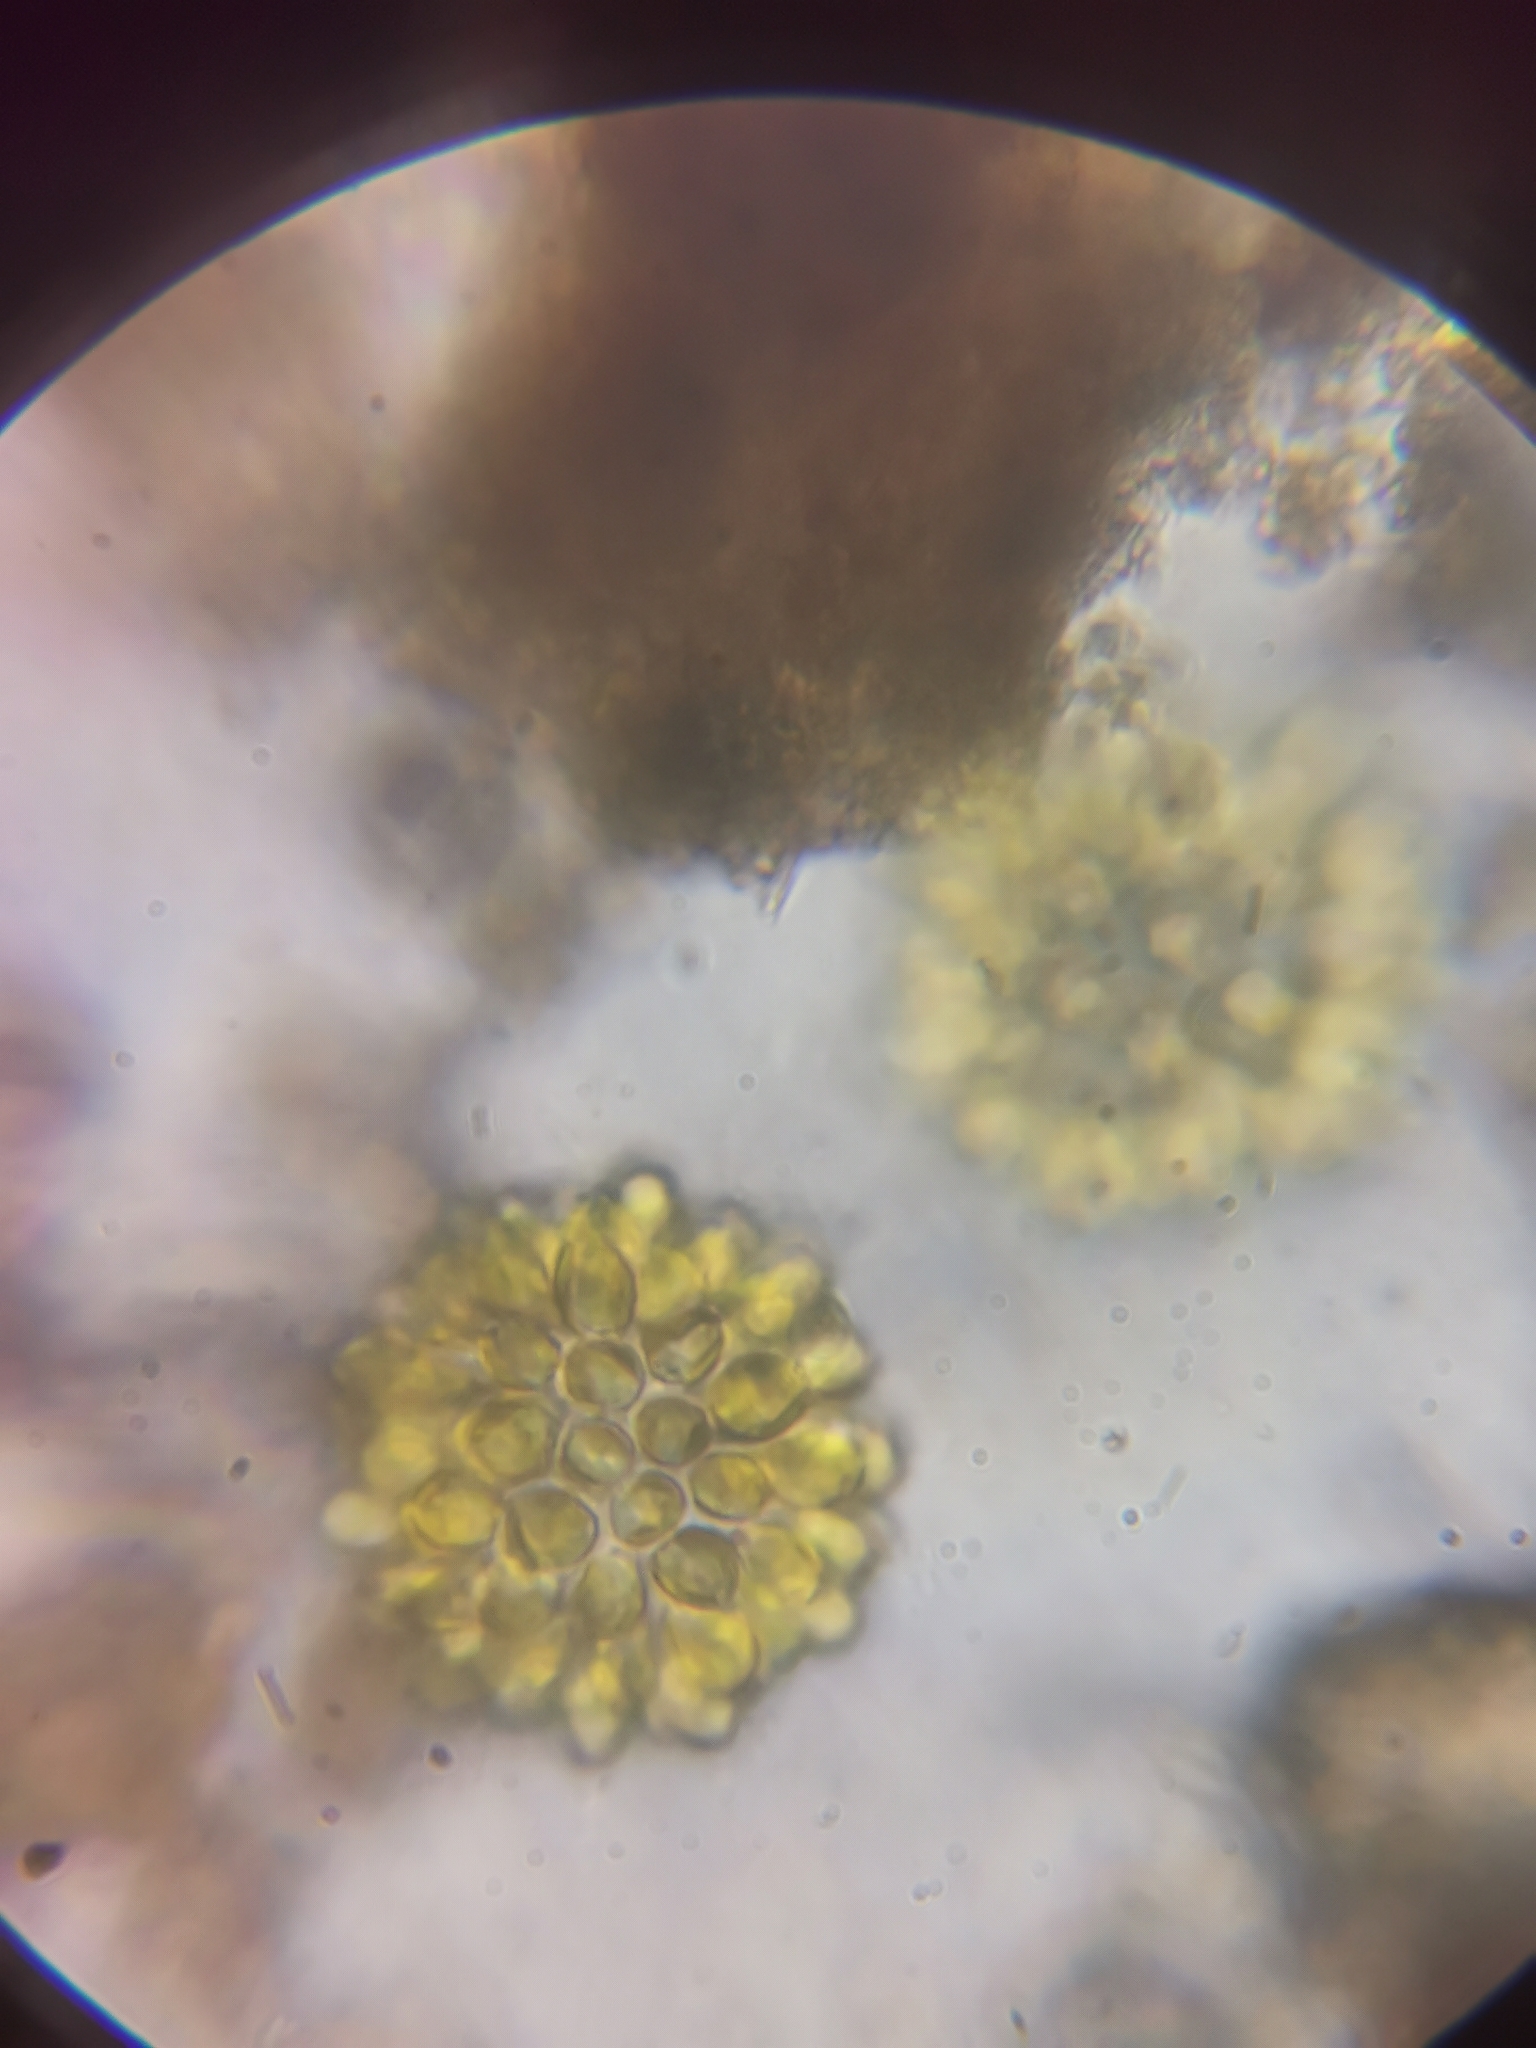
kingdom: Chromista
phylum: Ochrophyta
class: Synurophyceae
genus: Synura
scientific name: Synura
